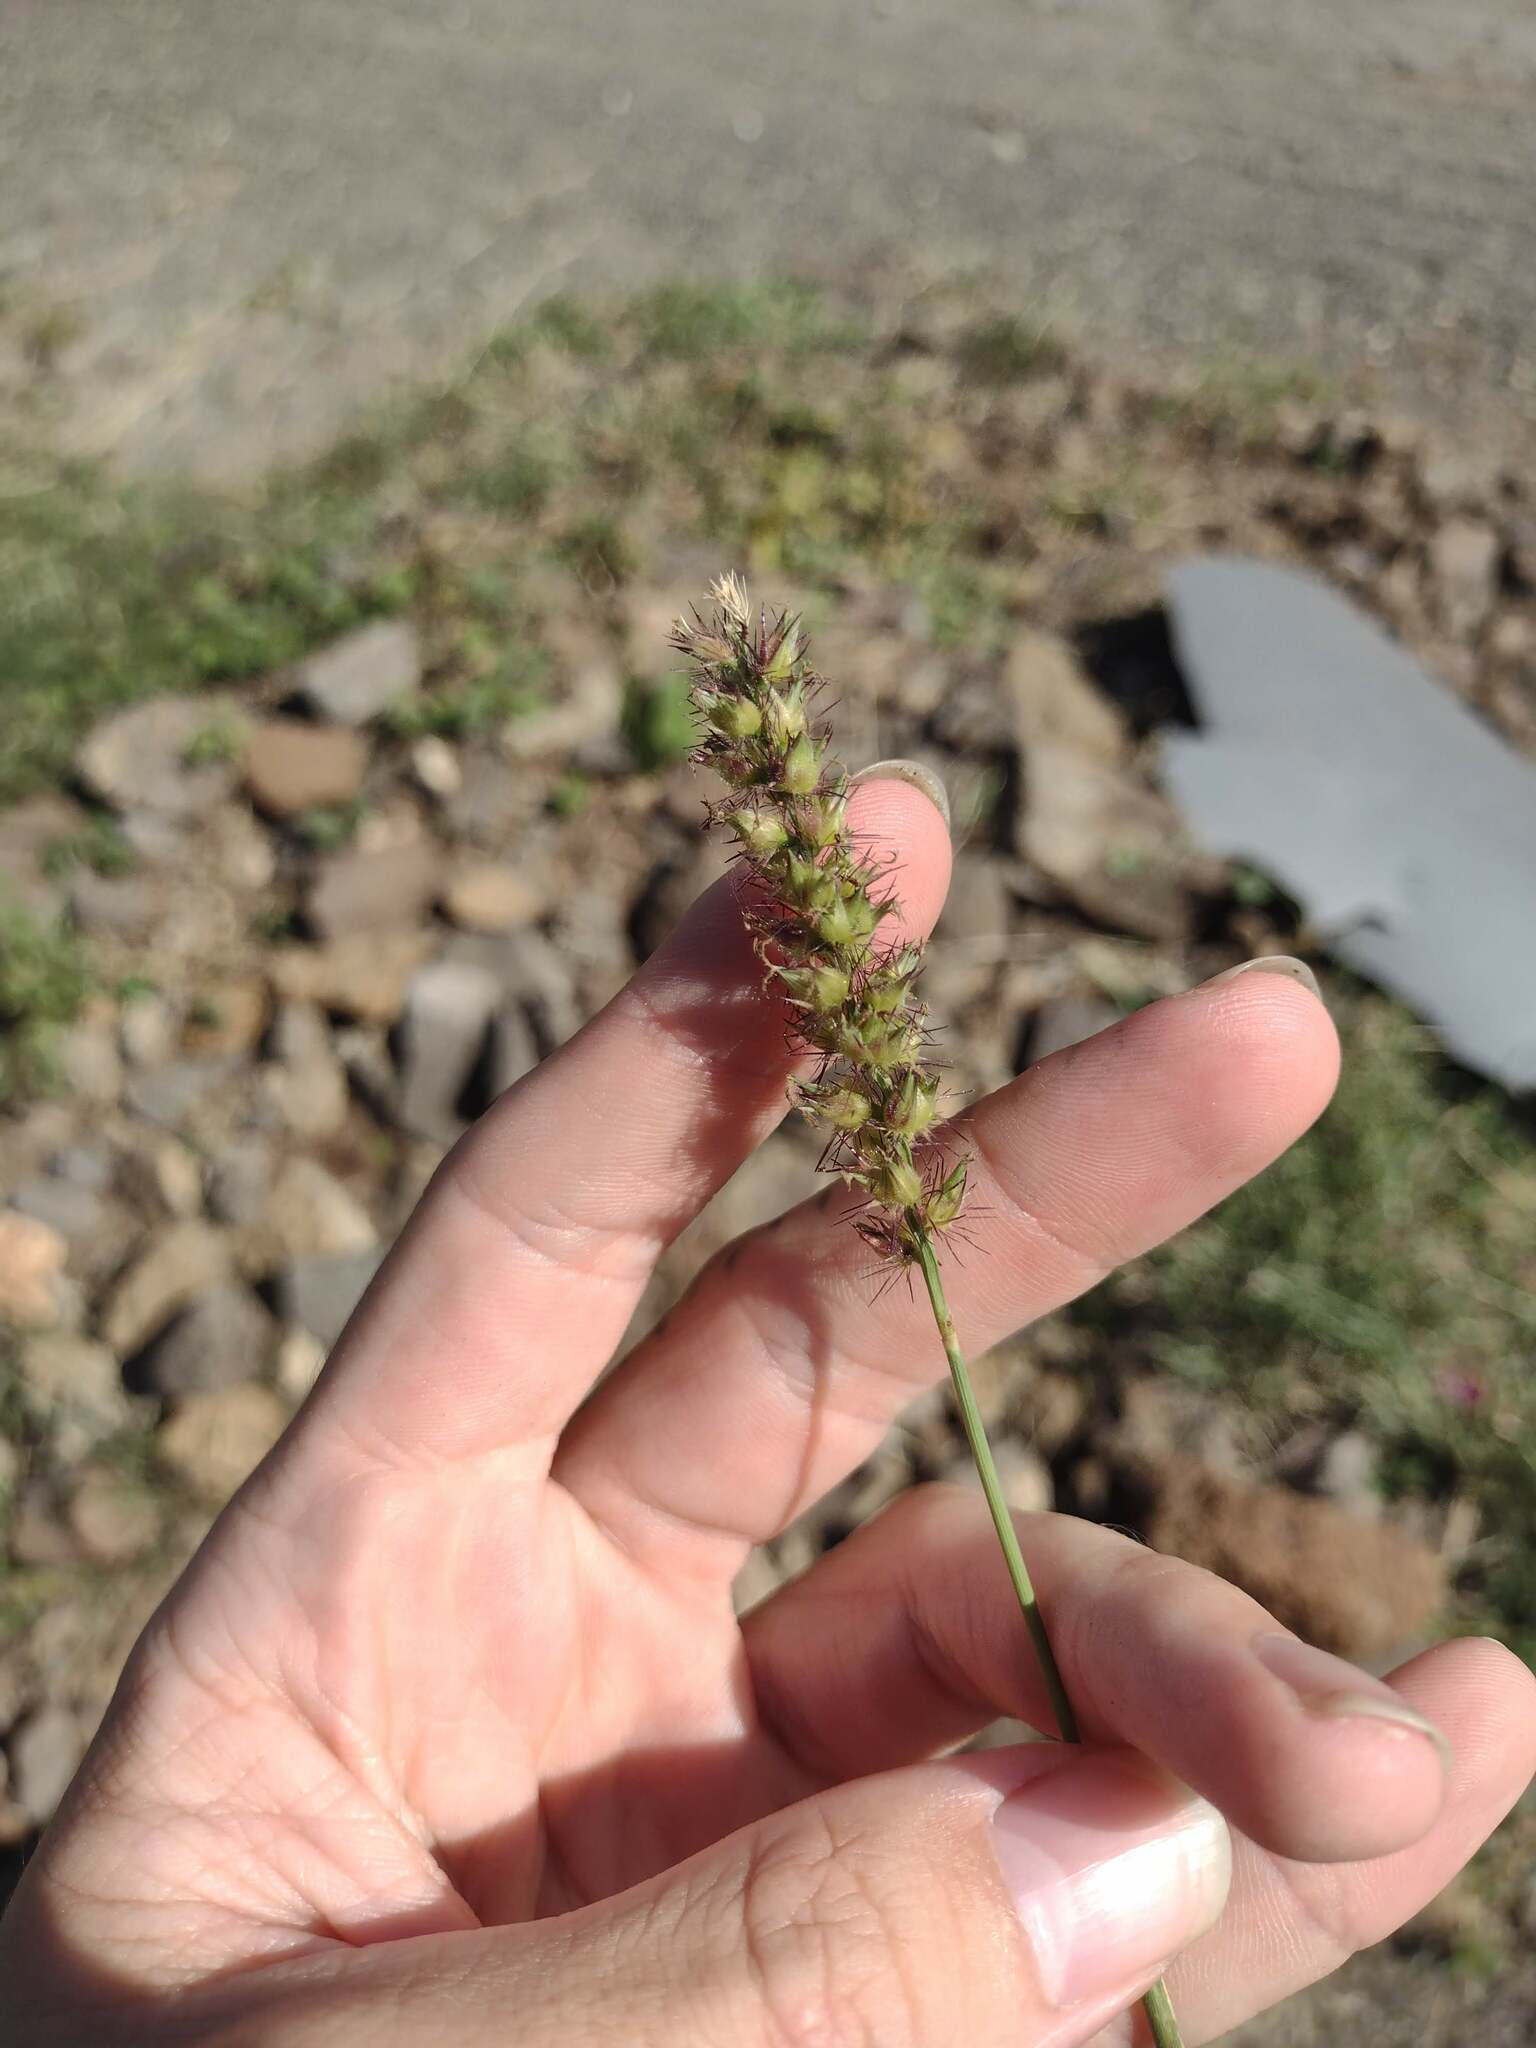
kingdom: Plantae
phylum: Tracheophyta
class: Liliopsida
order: Poales
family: Poaceae
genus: Cenchrus
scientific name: Cenchrus echinatus
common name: Southern sandbur
